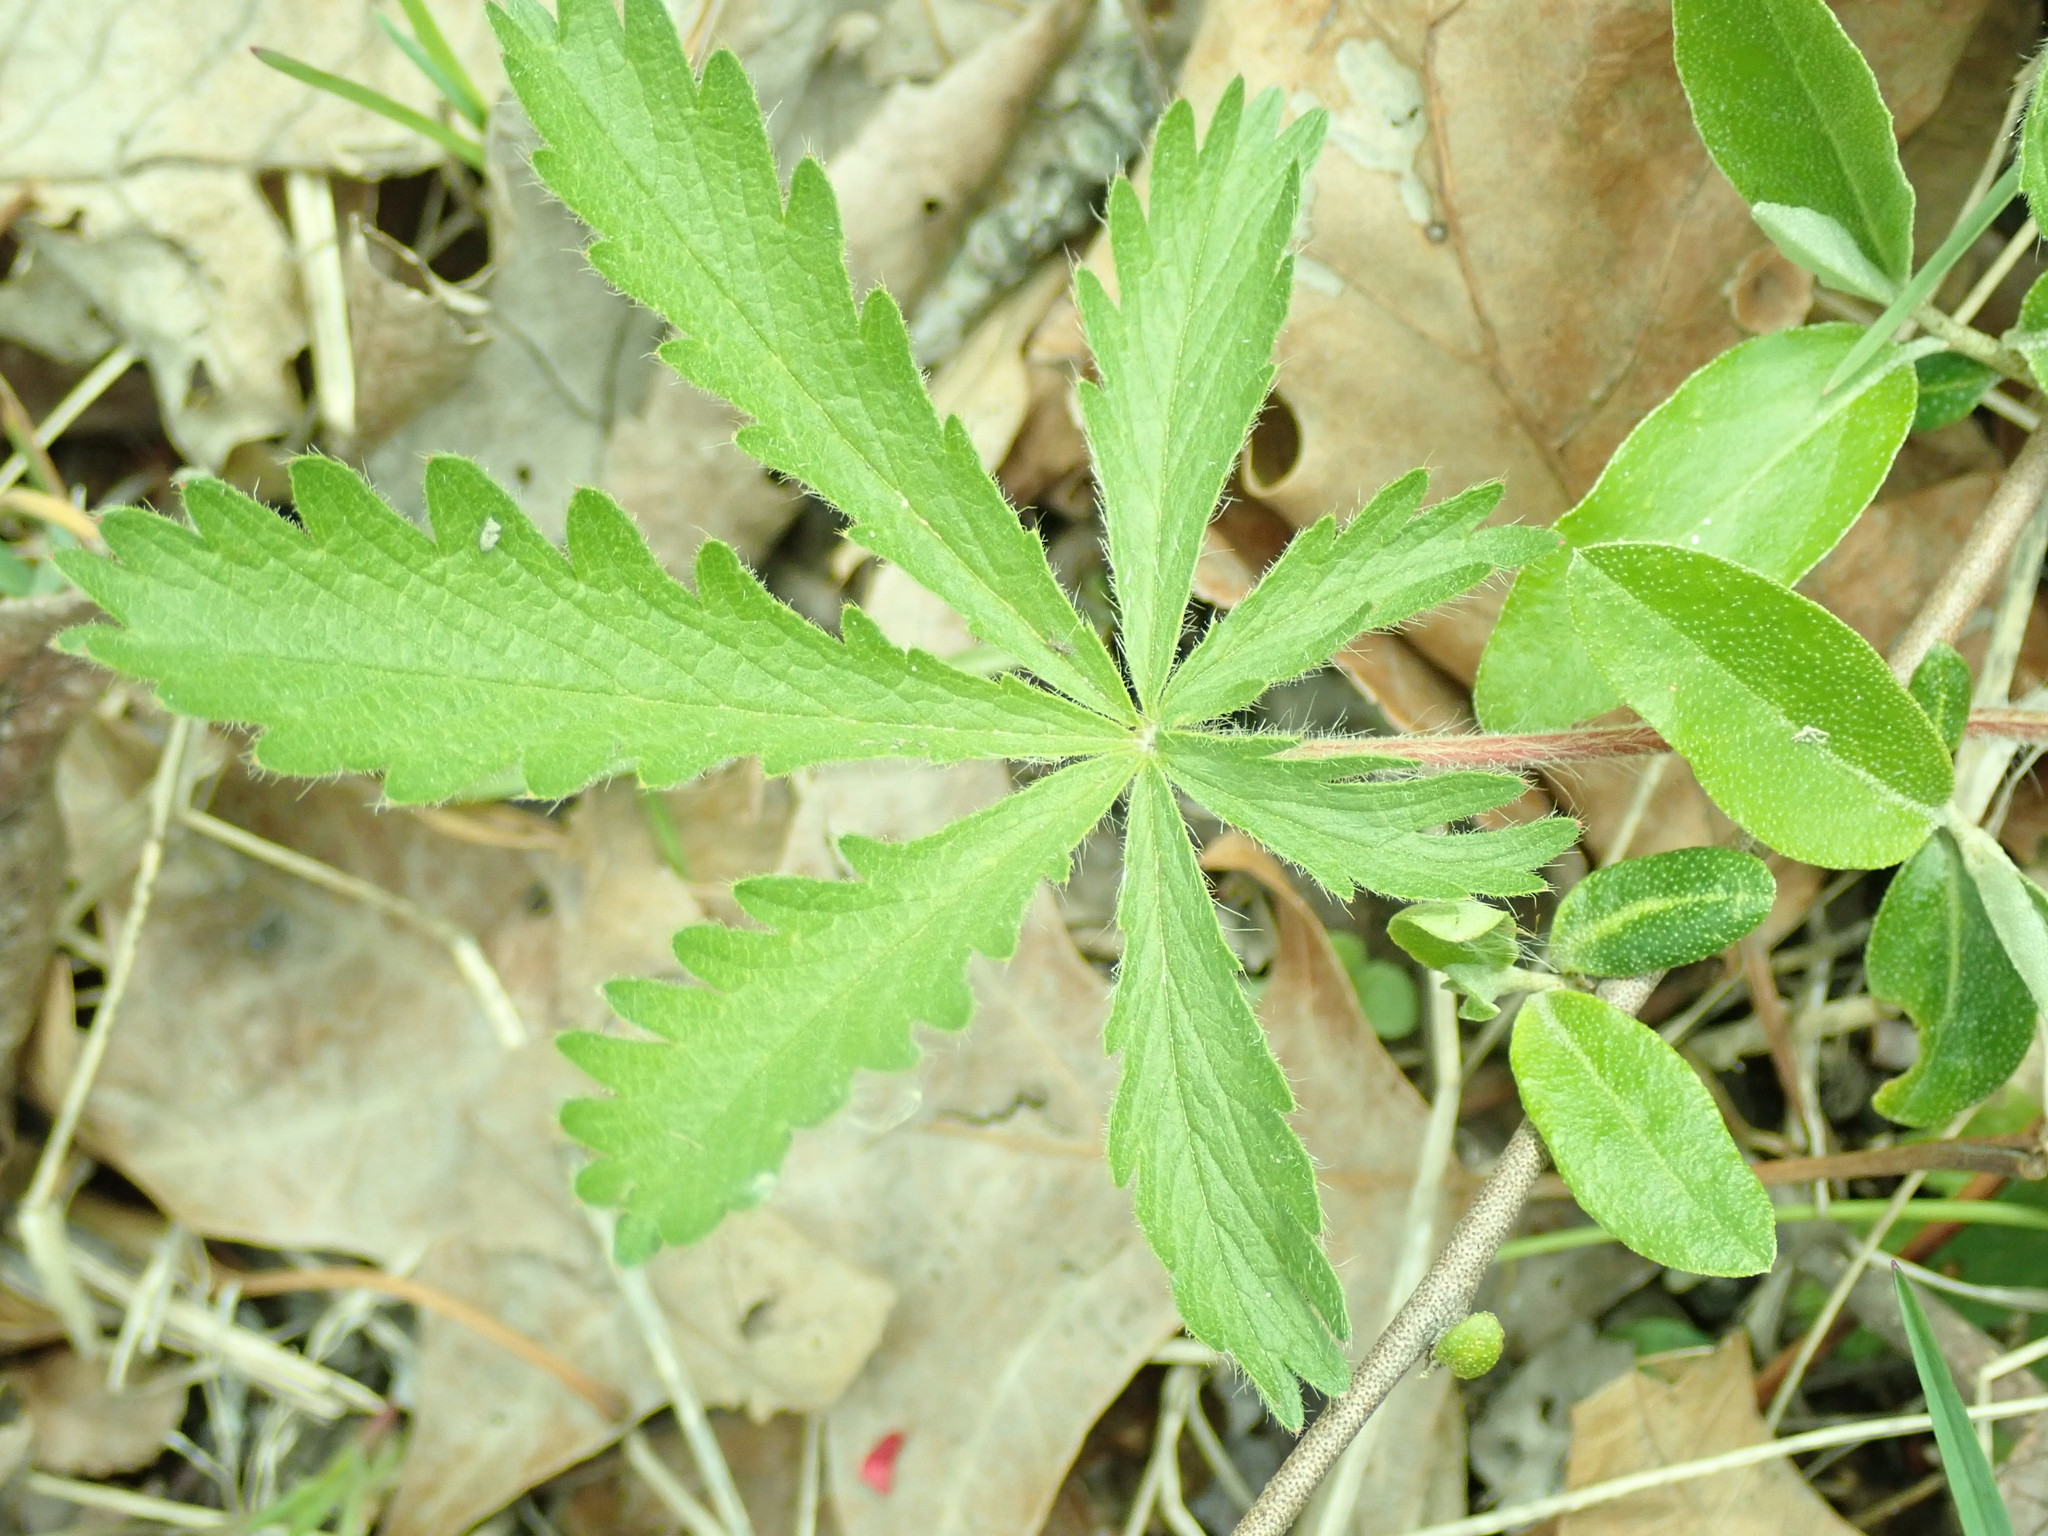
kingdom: Plantae
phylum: Tracheophyta
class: Magnoliopsida
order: Rosales
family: Rosaceae
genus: Potentilla
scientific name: Potentilla recta
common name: Sulphur cinquefoil
